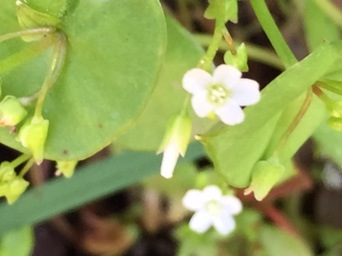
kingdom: Plantae
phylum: Tracheophyta
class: Magnoliopsida
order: Caryophyllales
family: Montiaceae
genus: Claytonia
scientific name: Claytonia perfoliata
